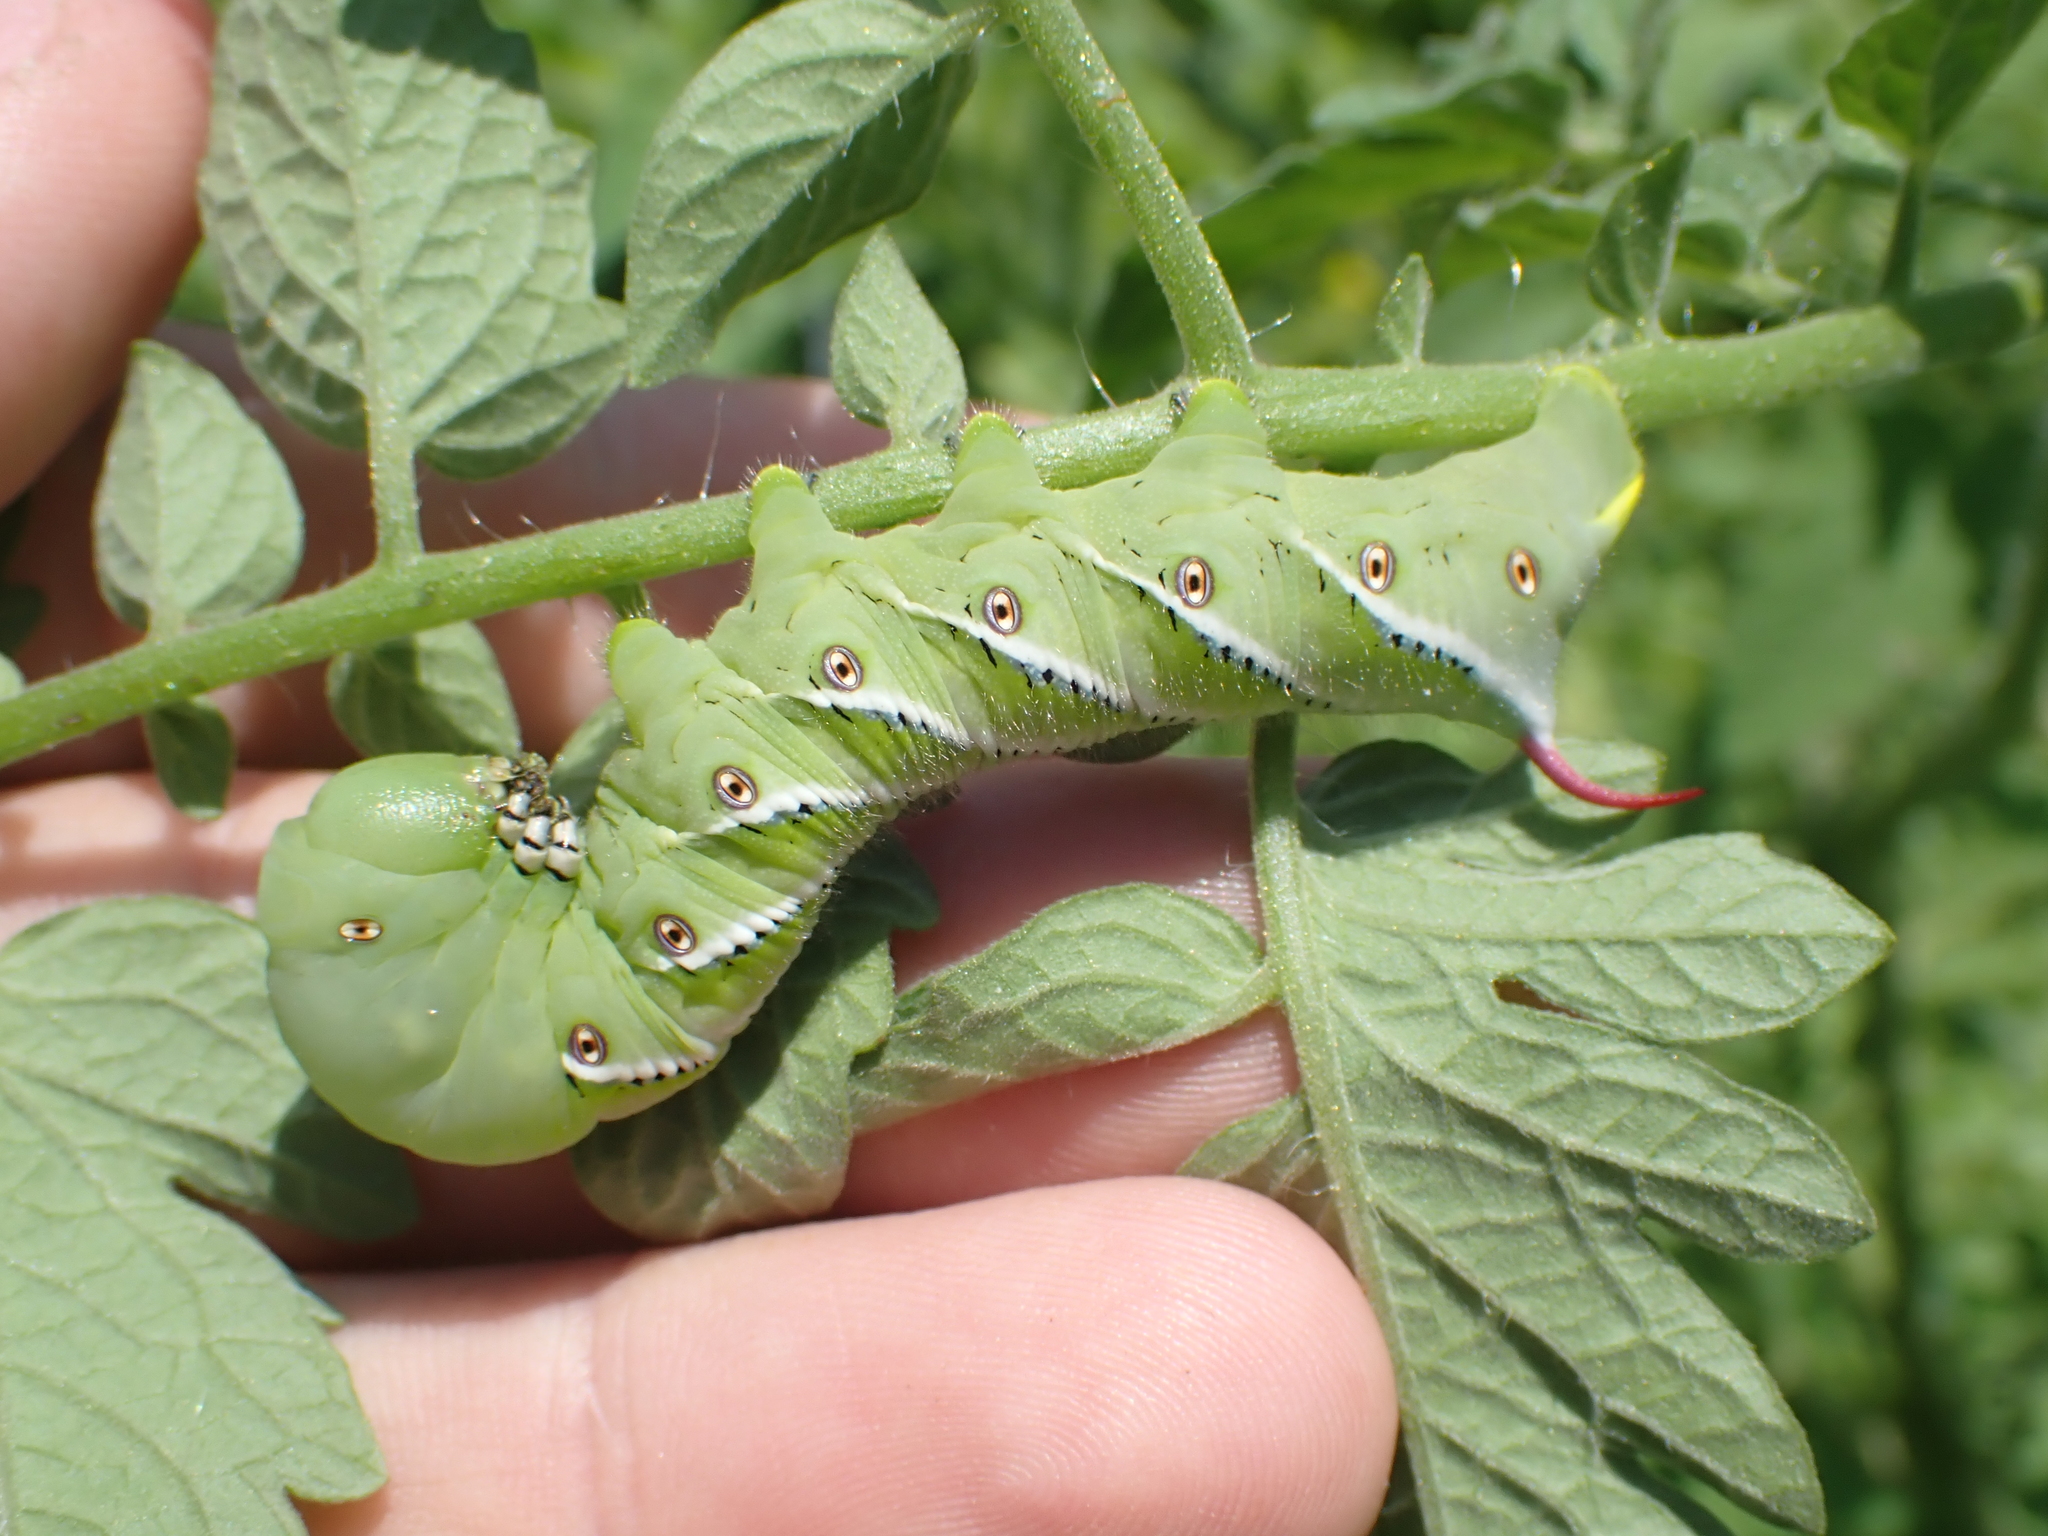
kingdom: Animalia
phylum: Arthropoda
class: Insecta
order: Lepidoptera
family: Sphingidae
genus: Manduca
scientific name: Manduca sexta
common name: Carolina sphinx
